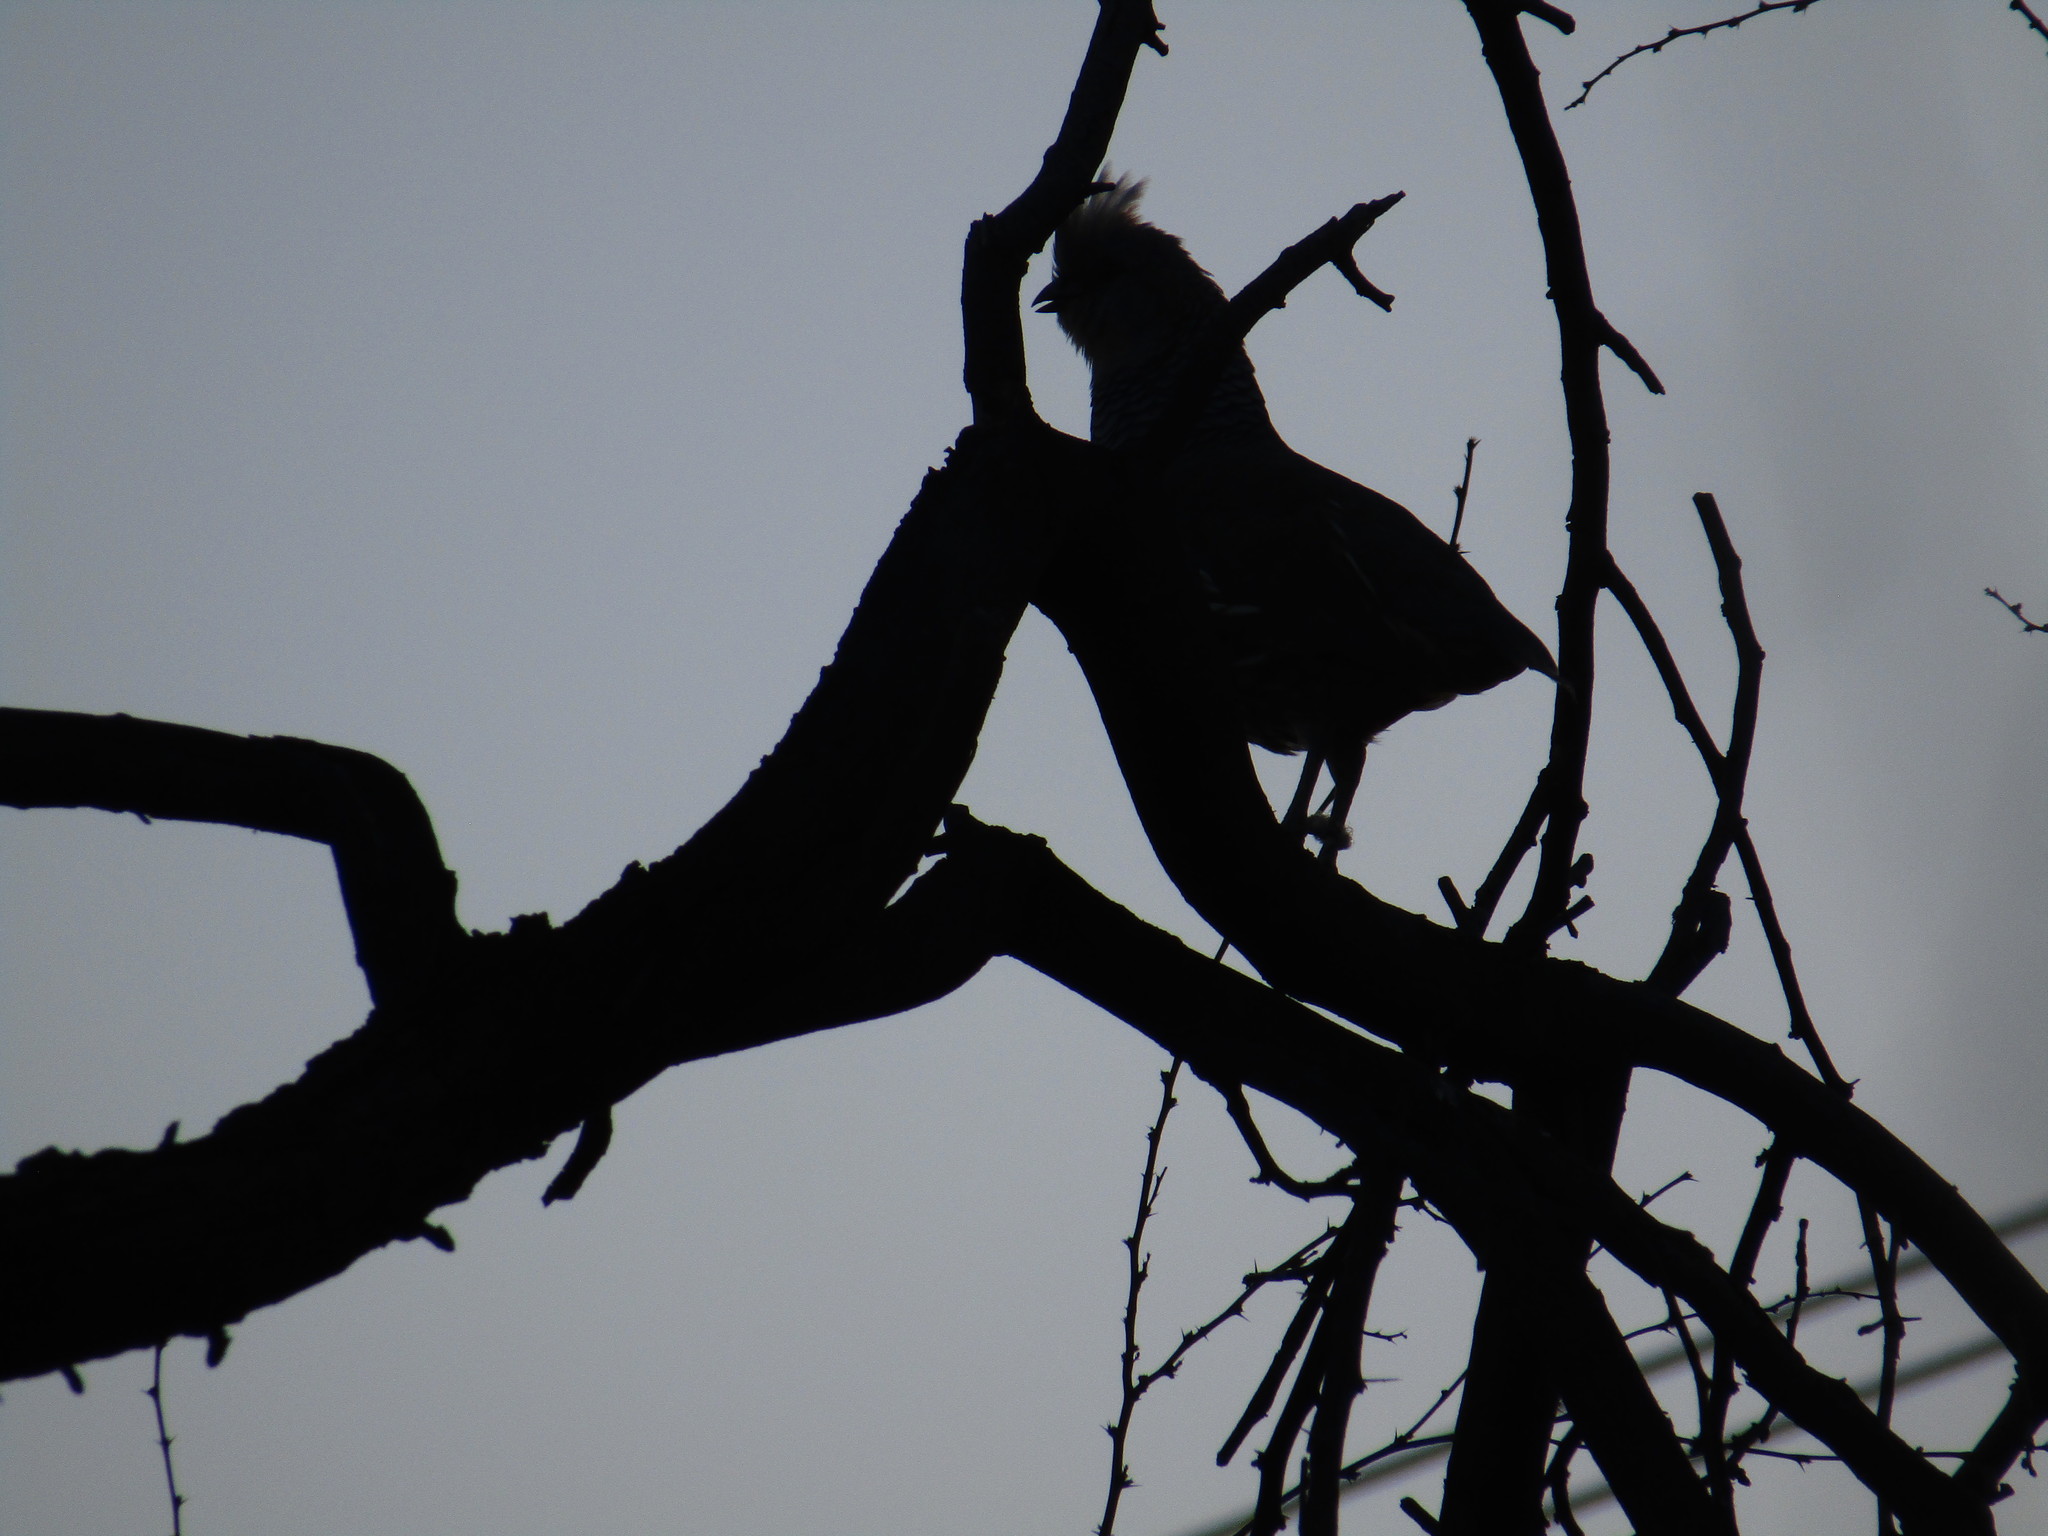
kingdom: Animalia
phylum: Chordata
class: Aves
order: Galliformes
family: Odontophoridae
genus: Callipepla
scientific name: Callipepla squamata
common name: Scaled quail
